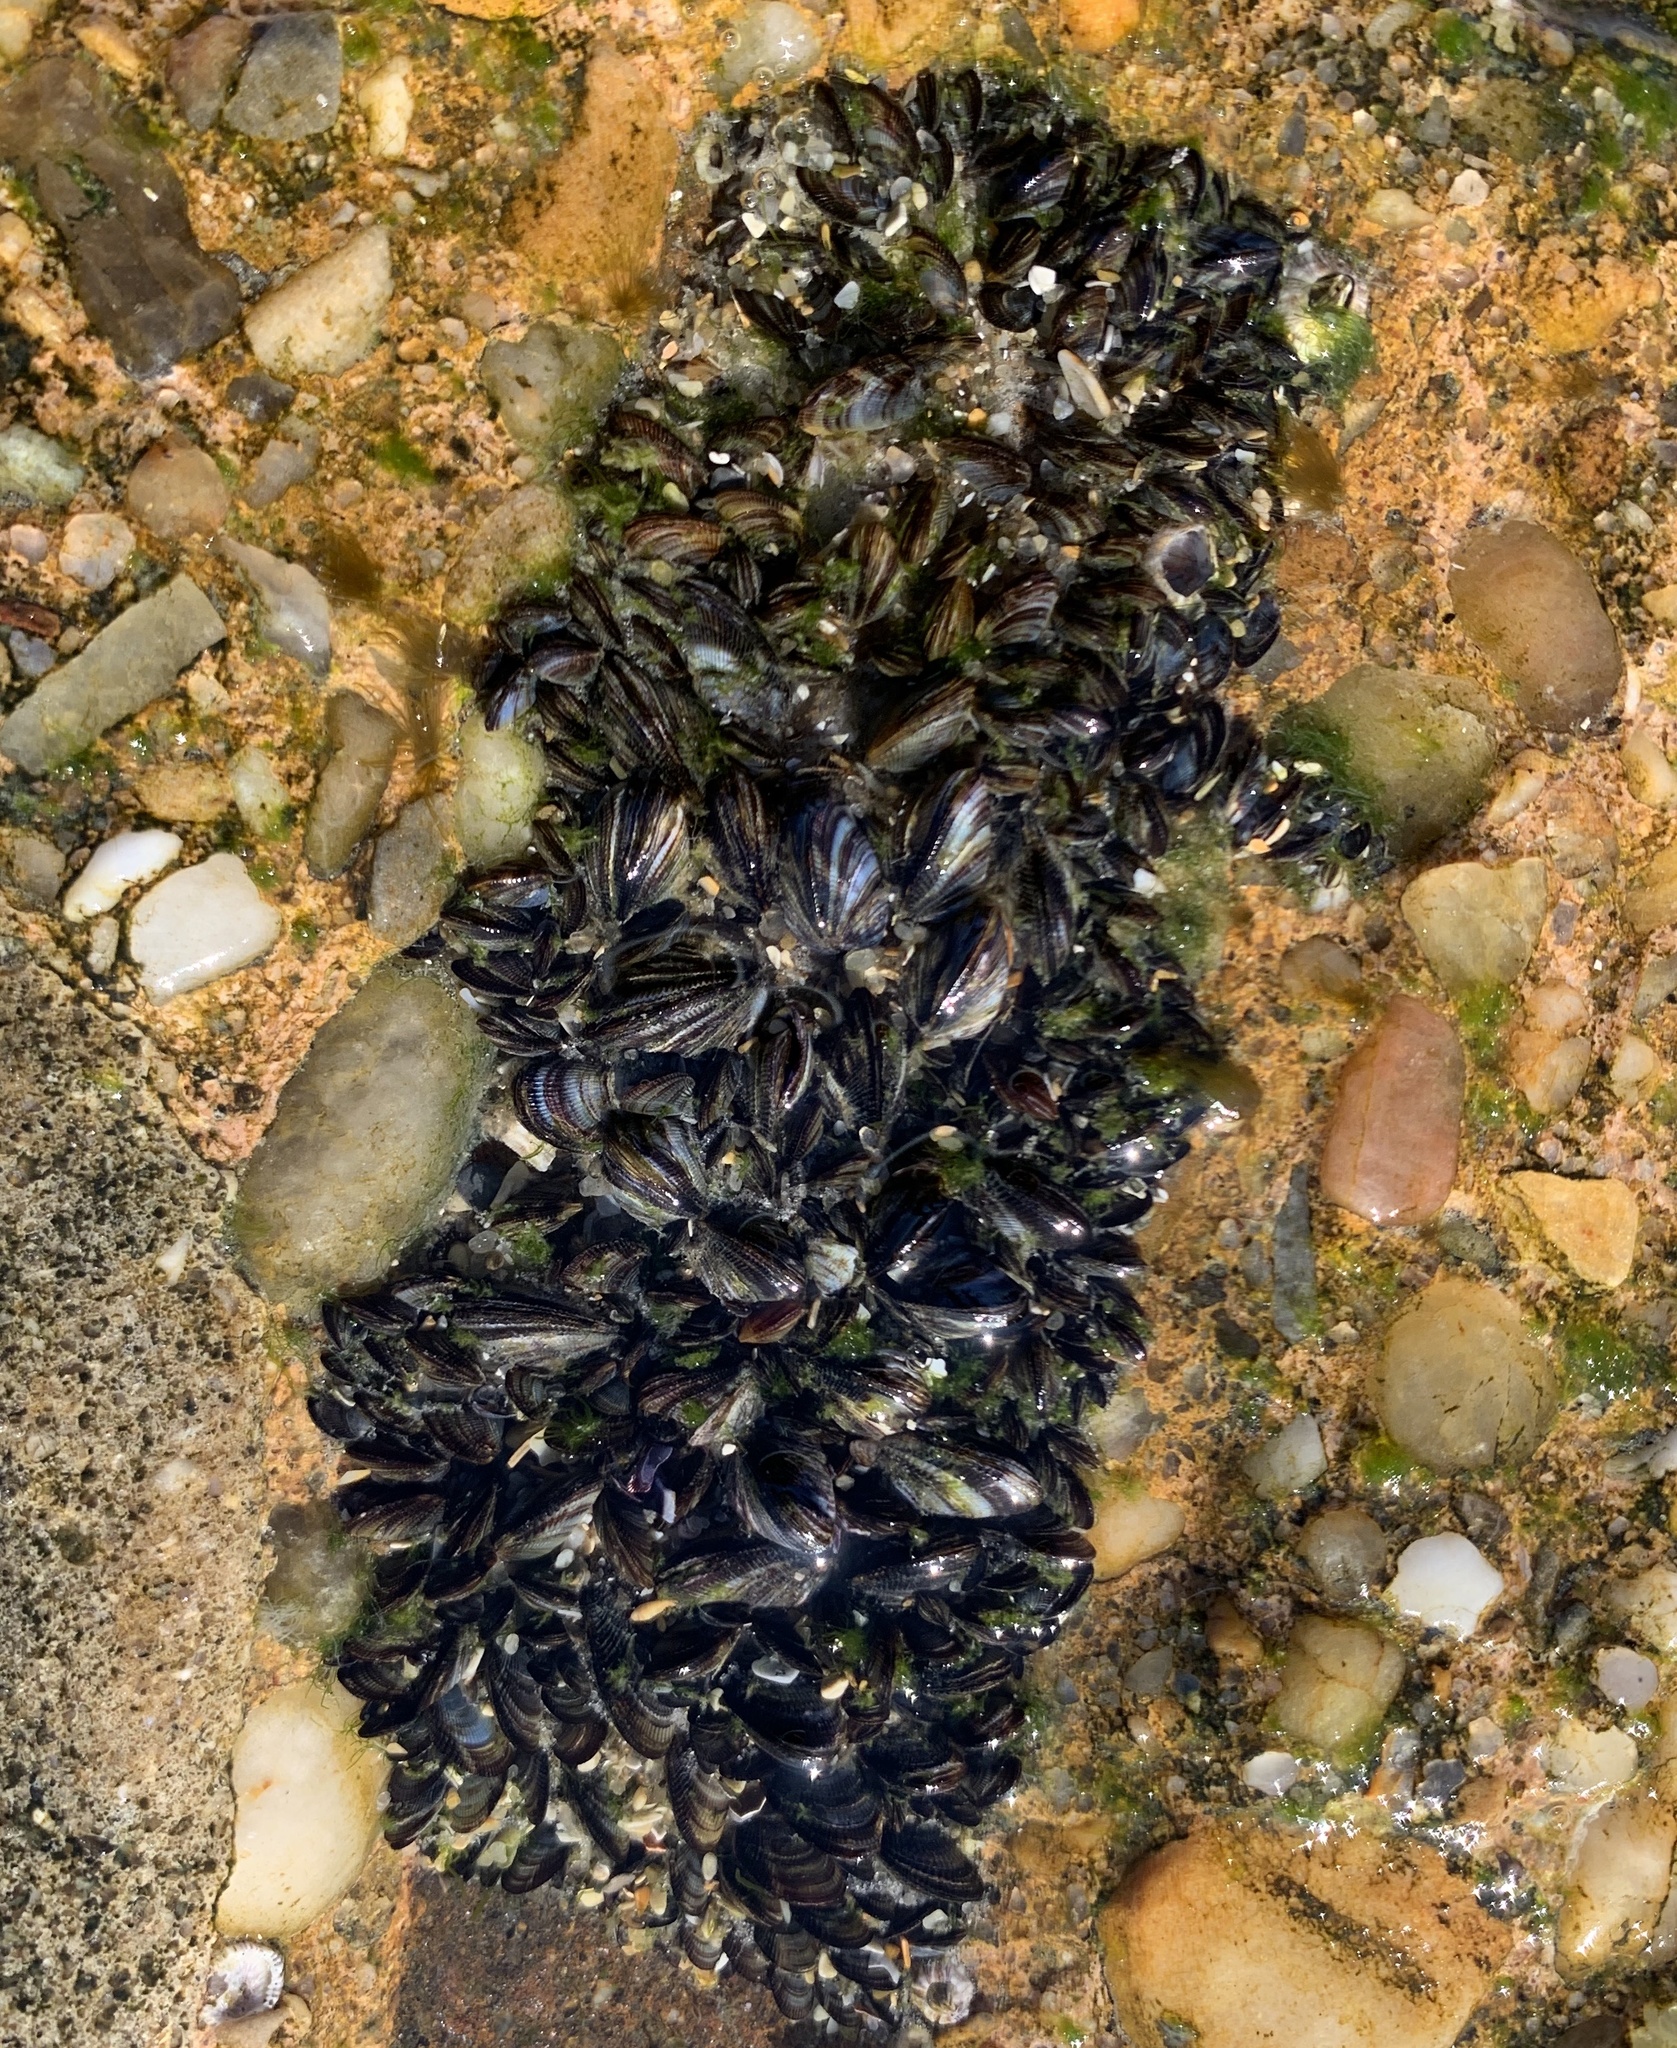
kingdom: Animalia
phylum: Mollusca
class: Bivalvia
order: Mytilida
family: Mytilidae
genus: Brachidontes
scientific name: Brachidontes exustus
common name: Scorched mussel
